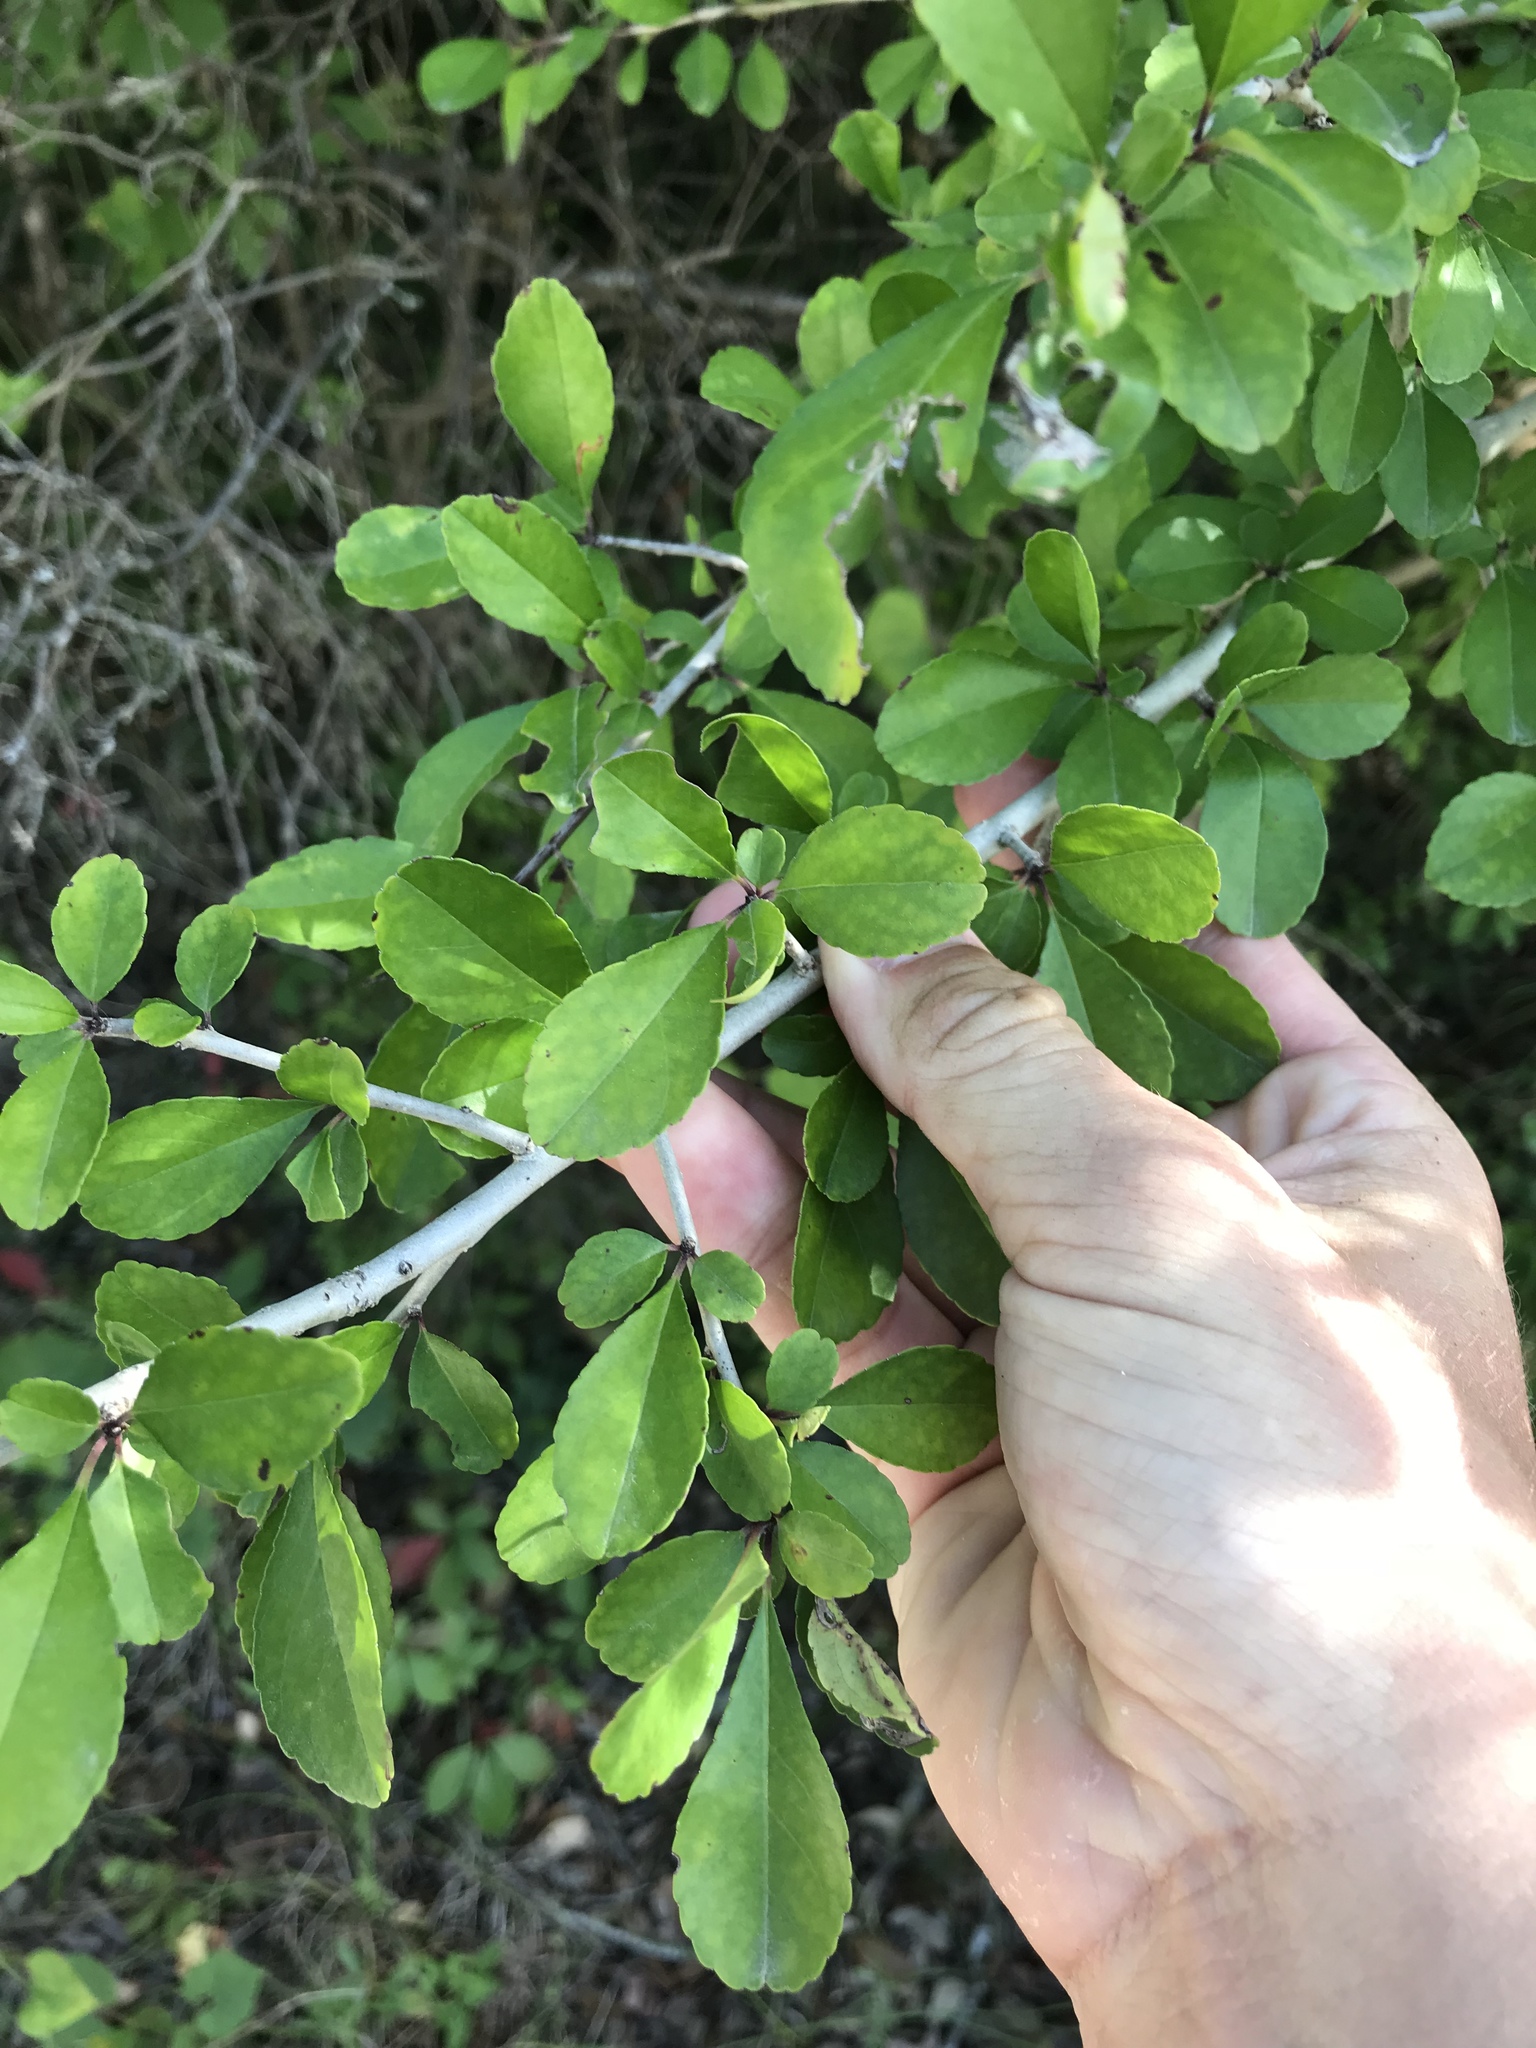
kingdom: Plantae
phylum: Tracheophyta
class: Magnoliopsida
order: Aquifoliales
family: Aquifoliaceae
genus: Ilex
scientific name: Ilex decidua
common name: Possum-haw
